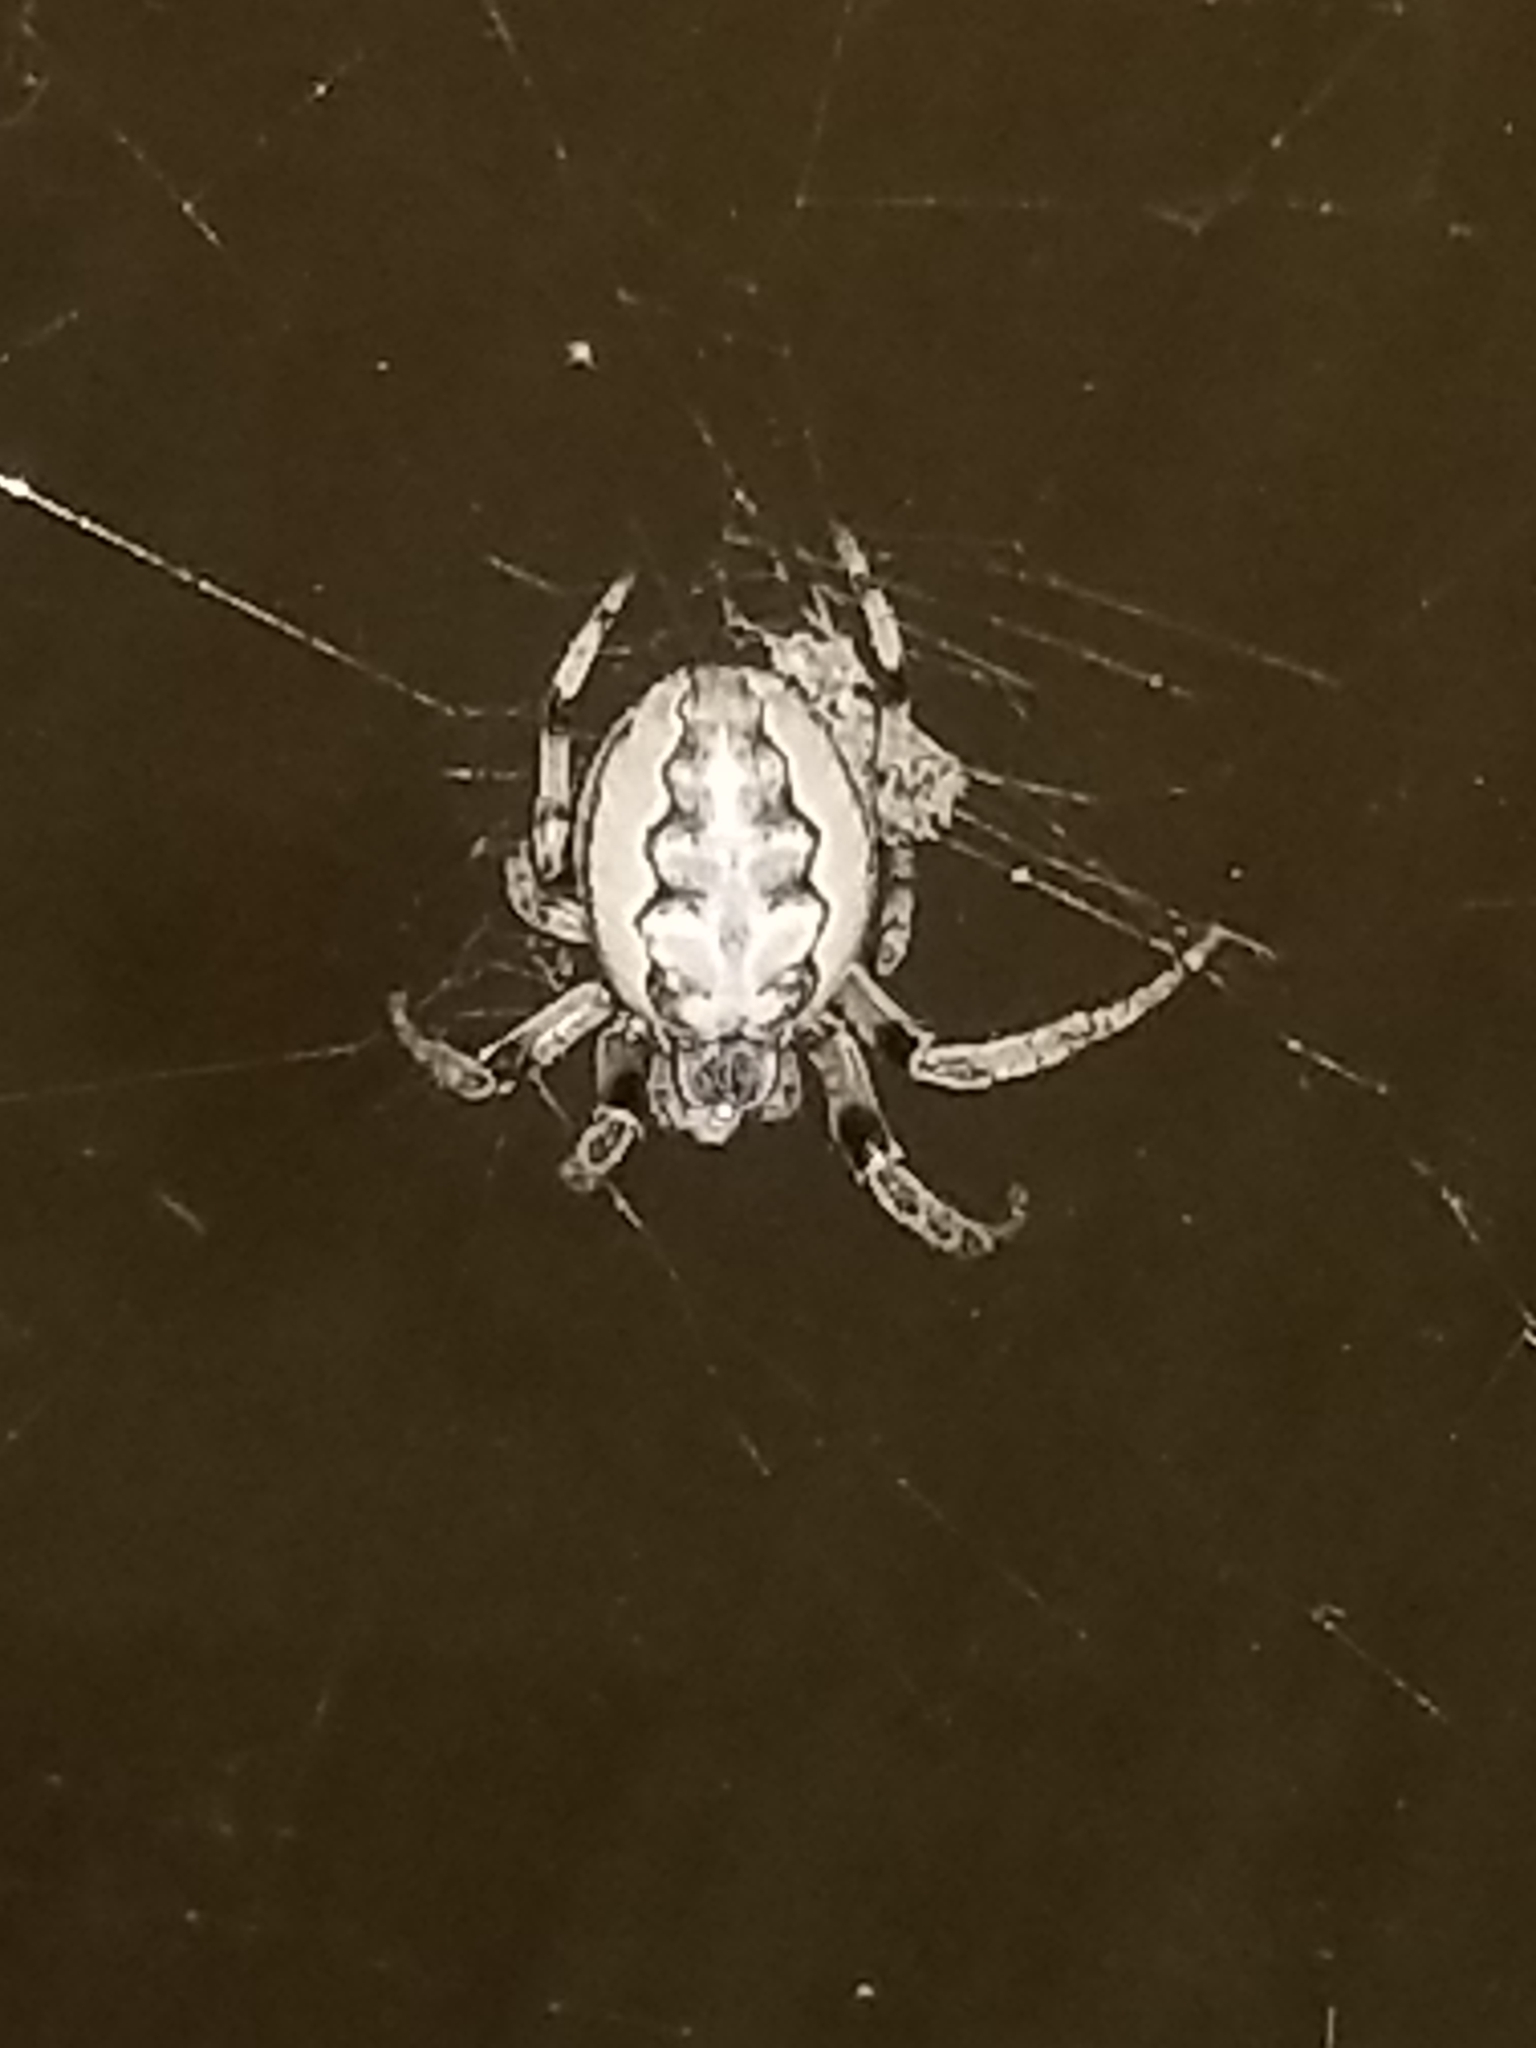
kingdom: Animalia
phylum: Arthropoda
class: Arachnida
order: Araneae
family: Araneidae
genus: Larinioides
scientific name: Larinioides cornutus
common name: Furrow orbweaver
